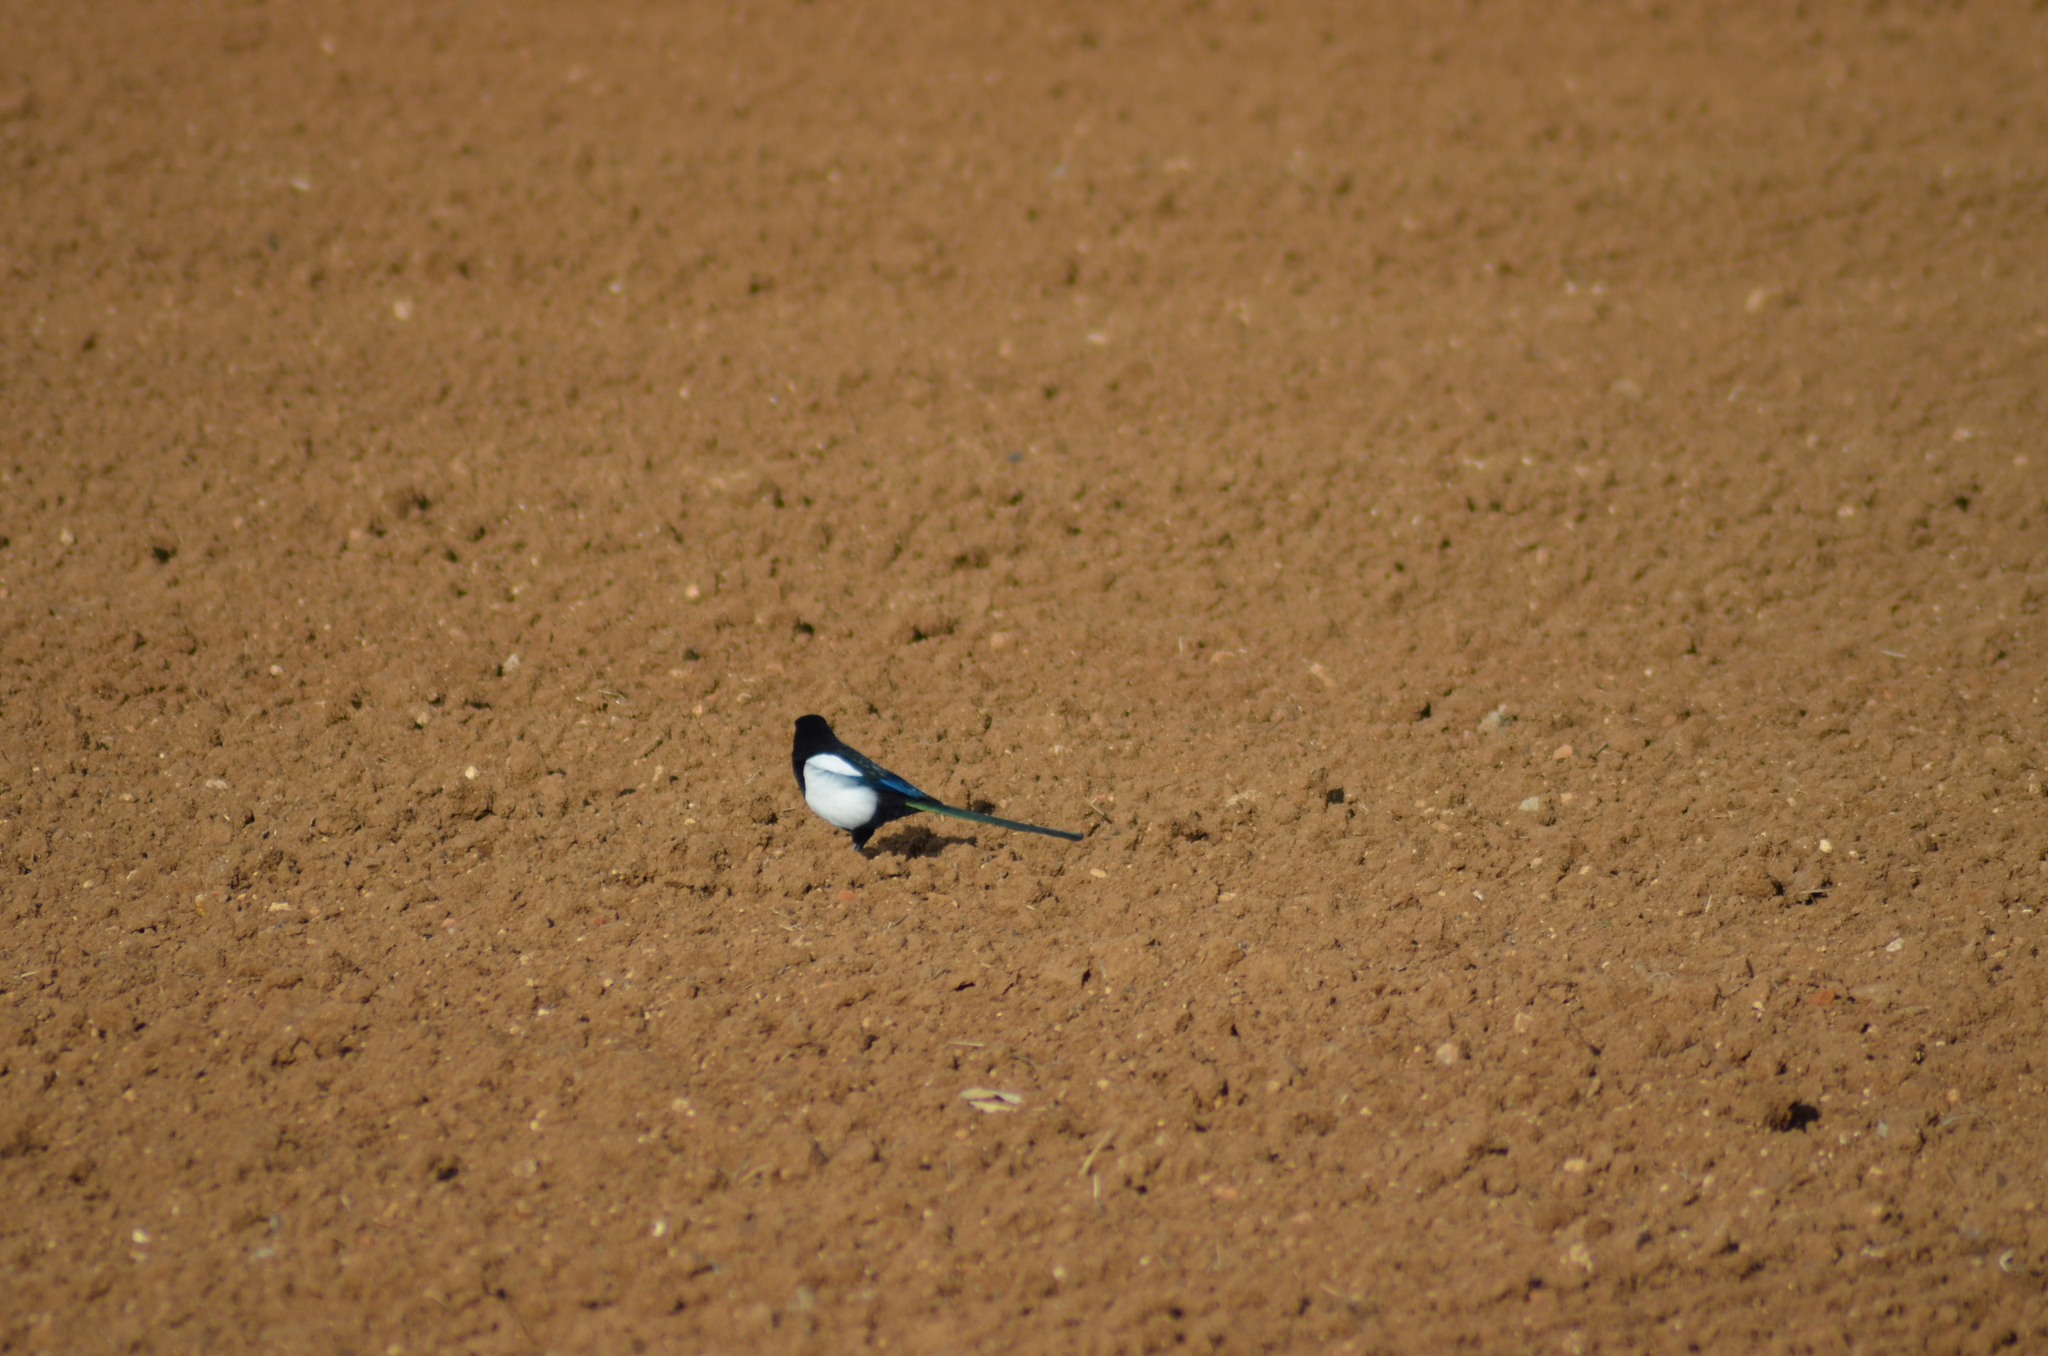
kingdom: Animalia
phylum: Chordata
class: Aves
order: Passeriformes
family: Corvidae
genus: Pica
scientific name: Pica pica
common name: Eurasian magpie
